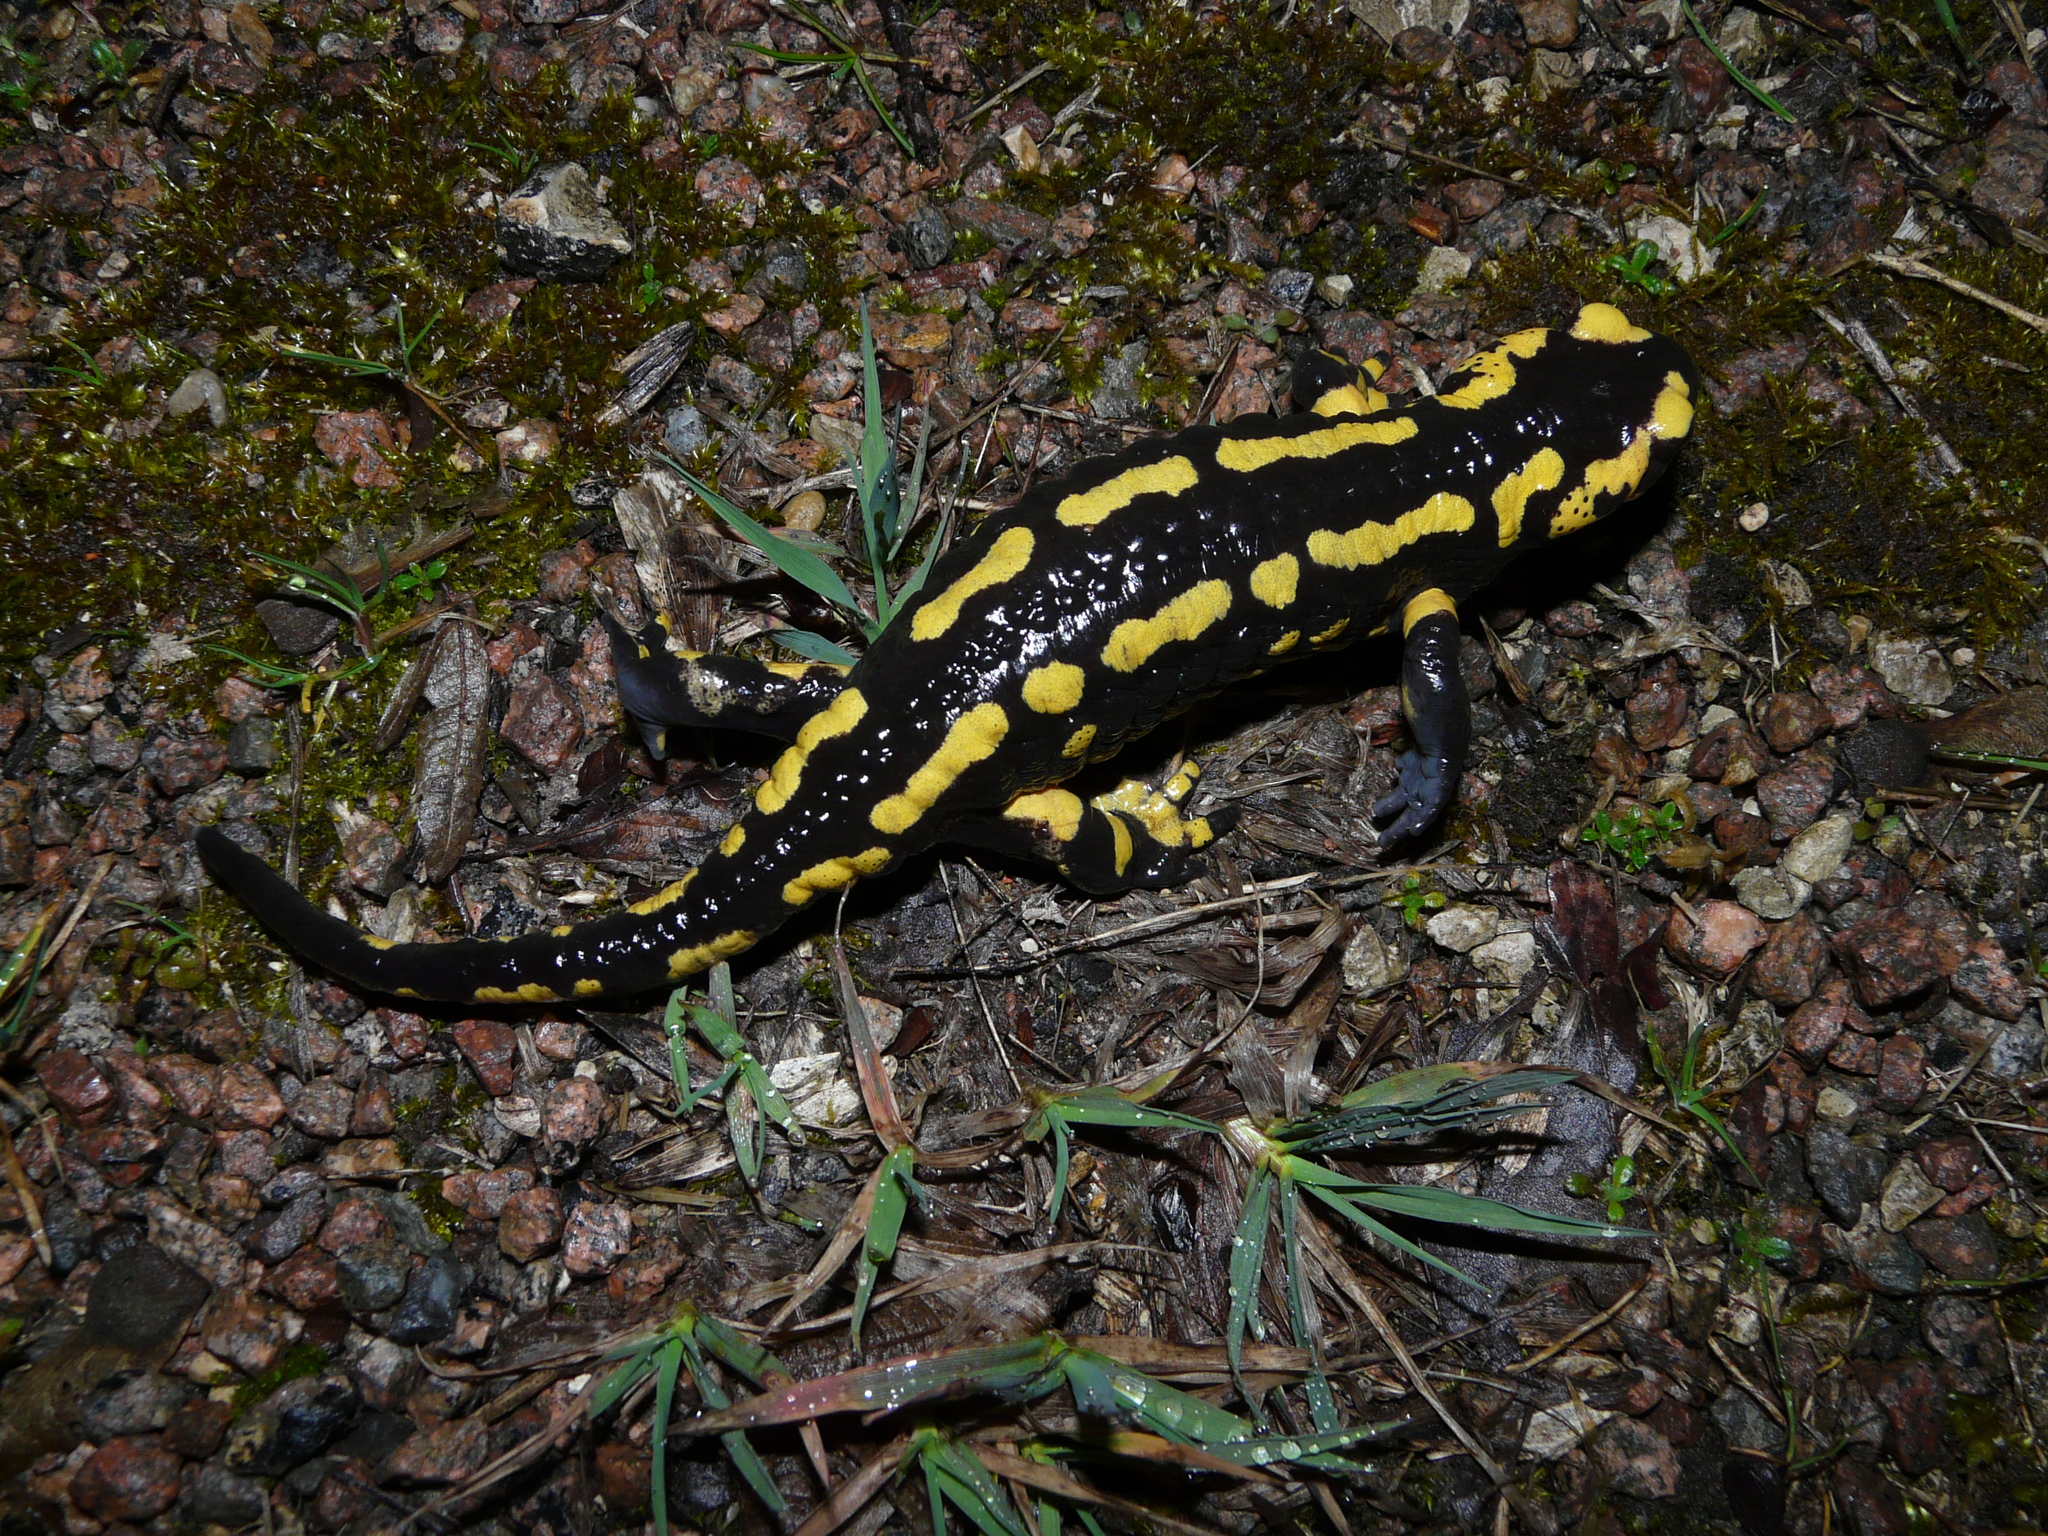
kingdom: Animalia
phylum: Chordata
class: Amphibia
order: Caudata
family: Salamandridae
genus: Salamandra
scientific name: Salamandra salamandra
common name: Fire salamander
